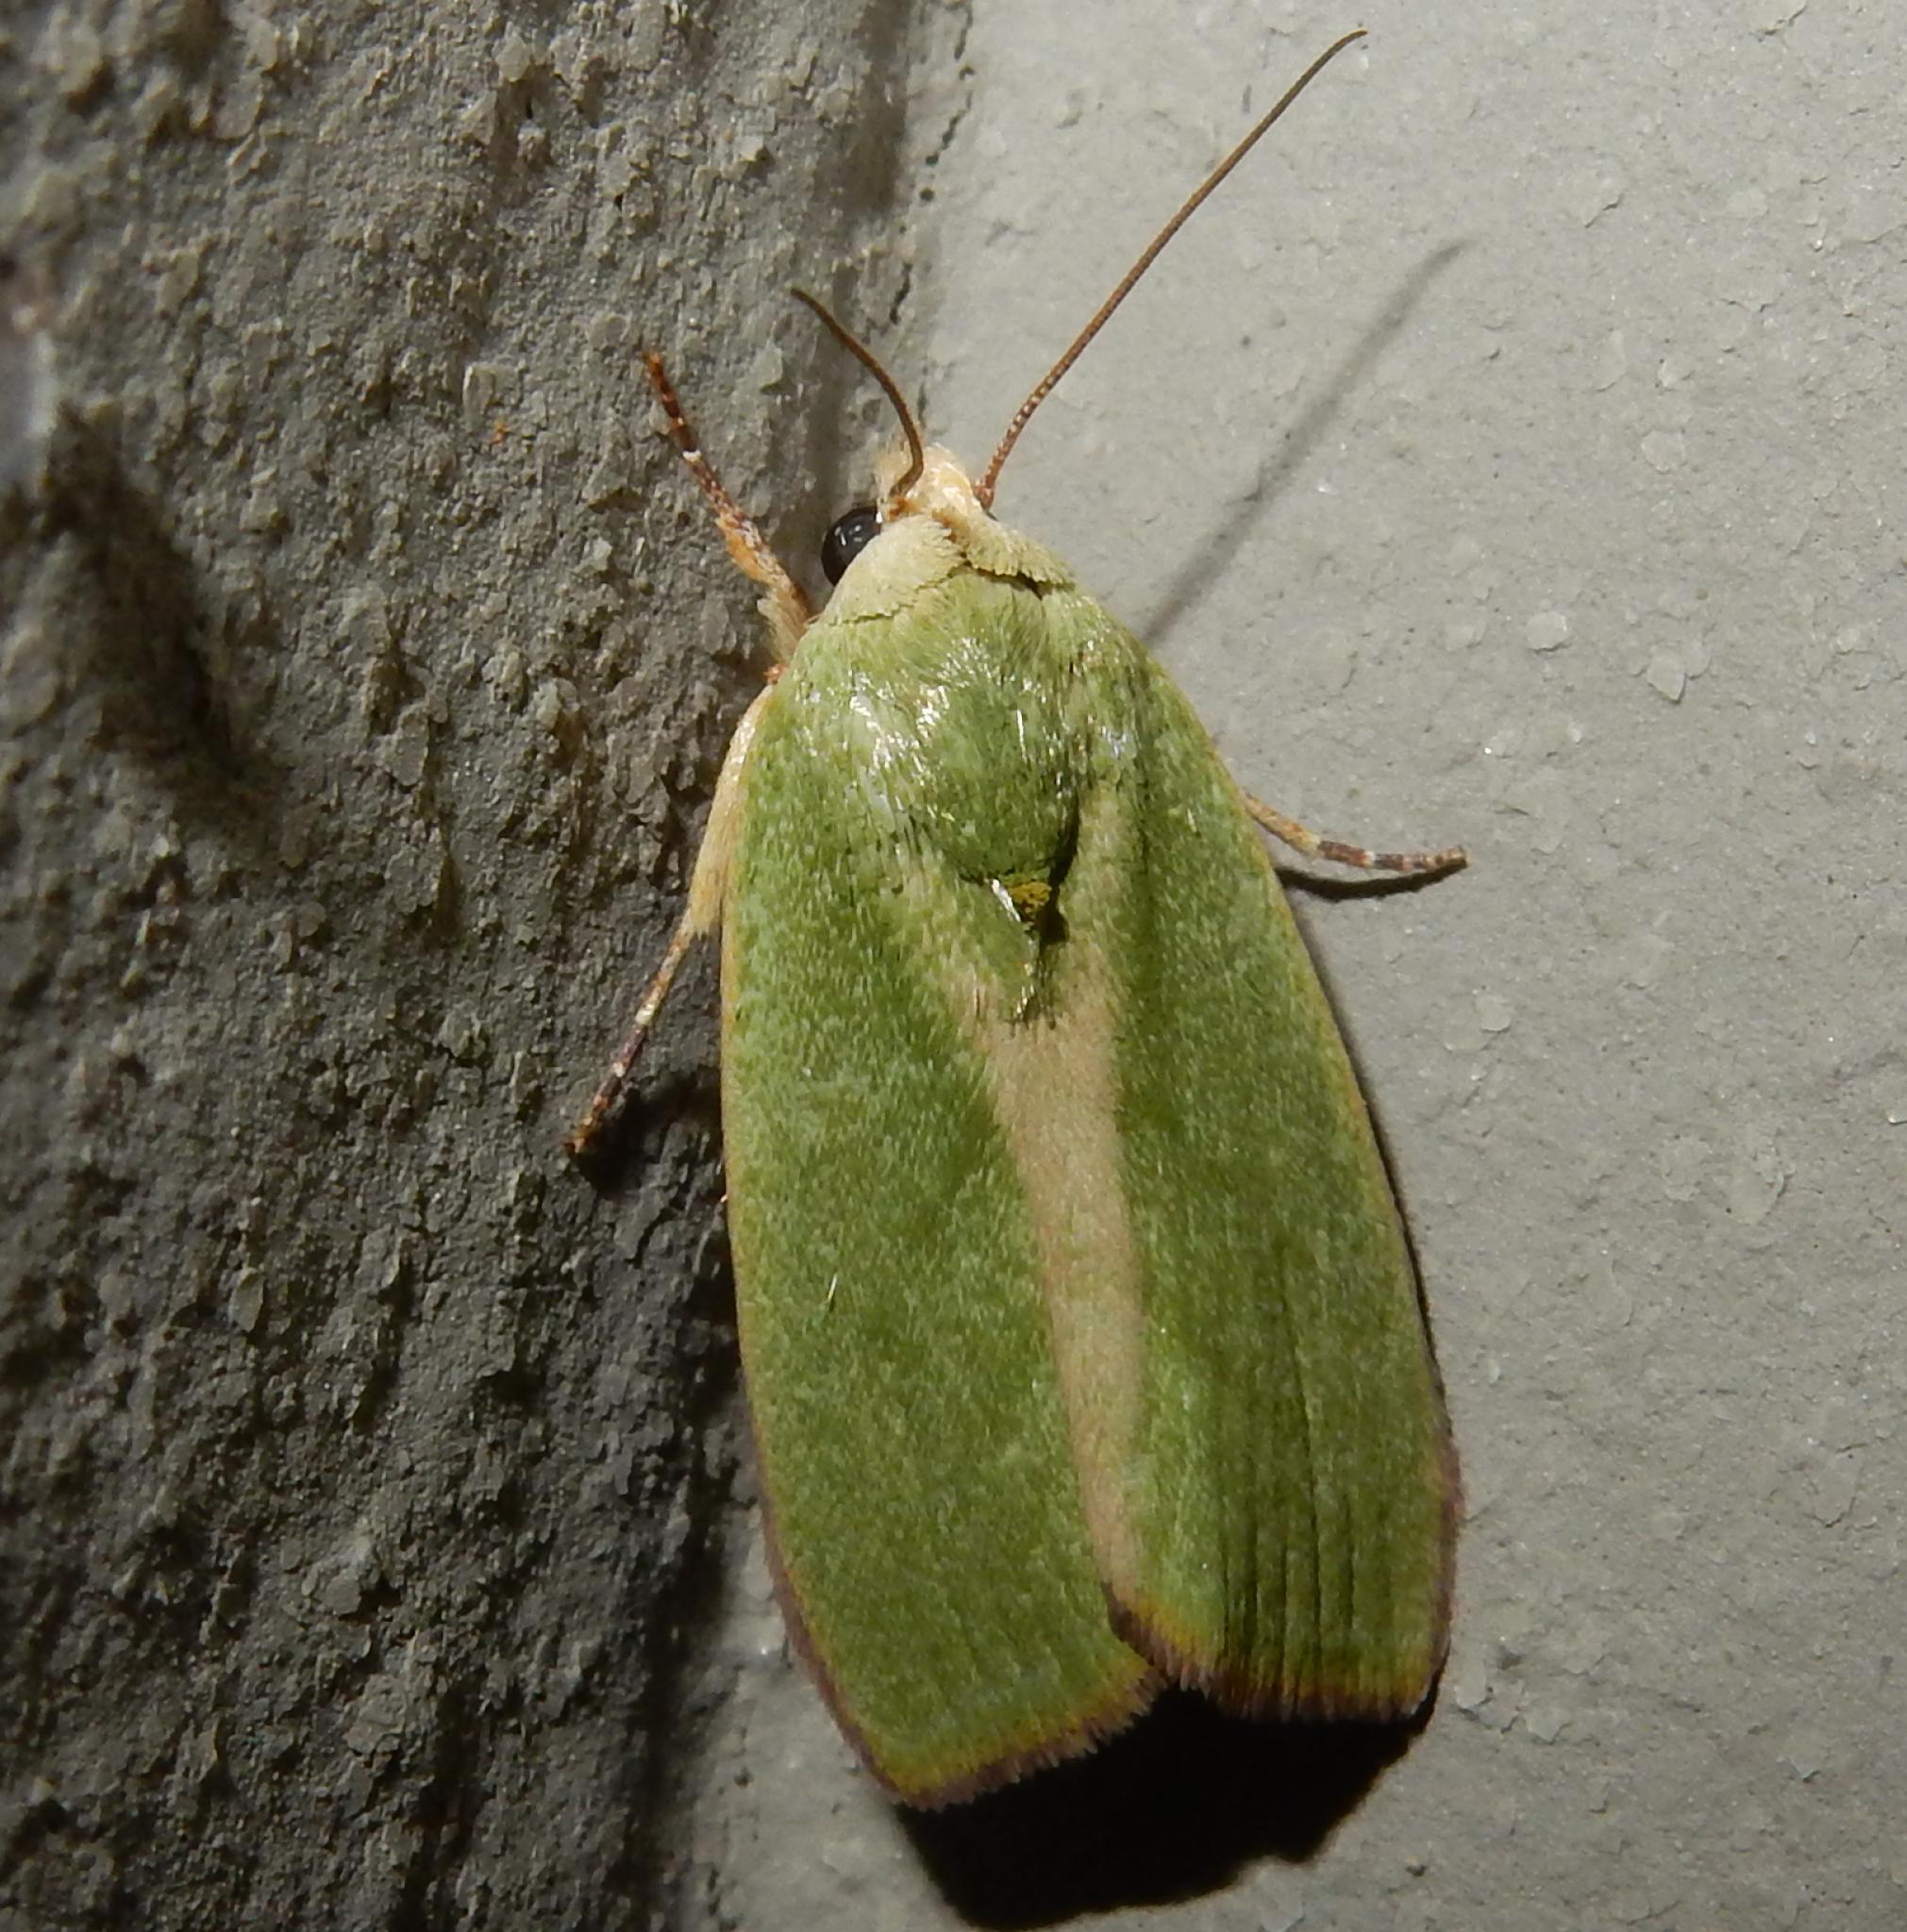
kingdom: Animalia
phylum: Arthropoda
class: Insecta
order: Lepidoptera
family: Nolidae
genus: Earias
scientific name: Earias insulana
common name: Egyptian bollworm
